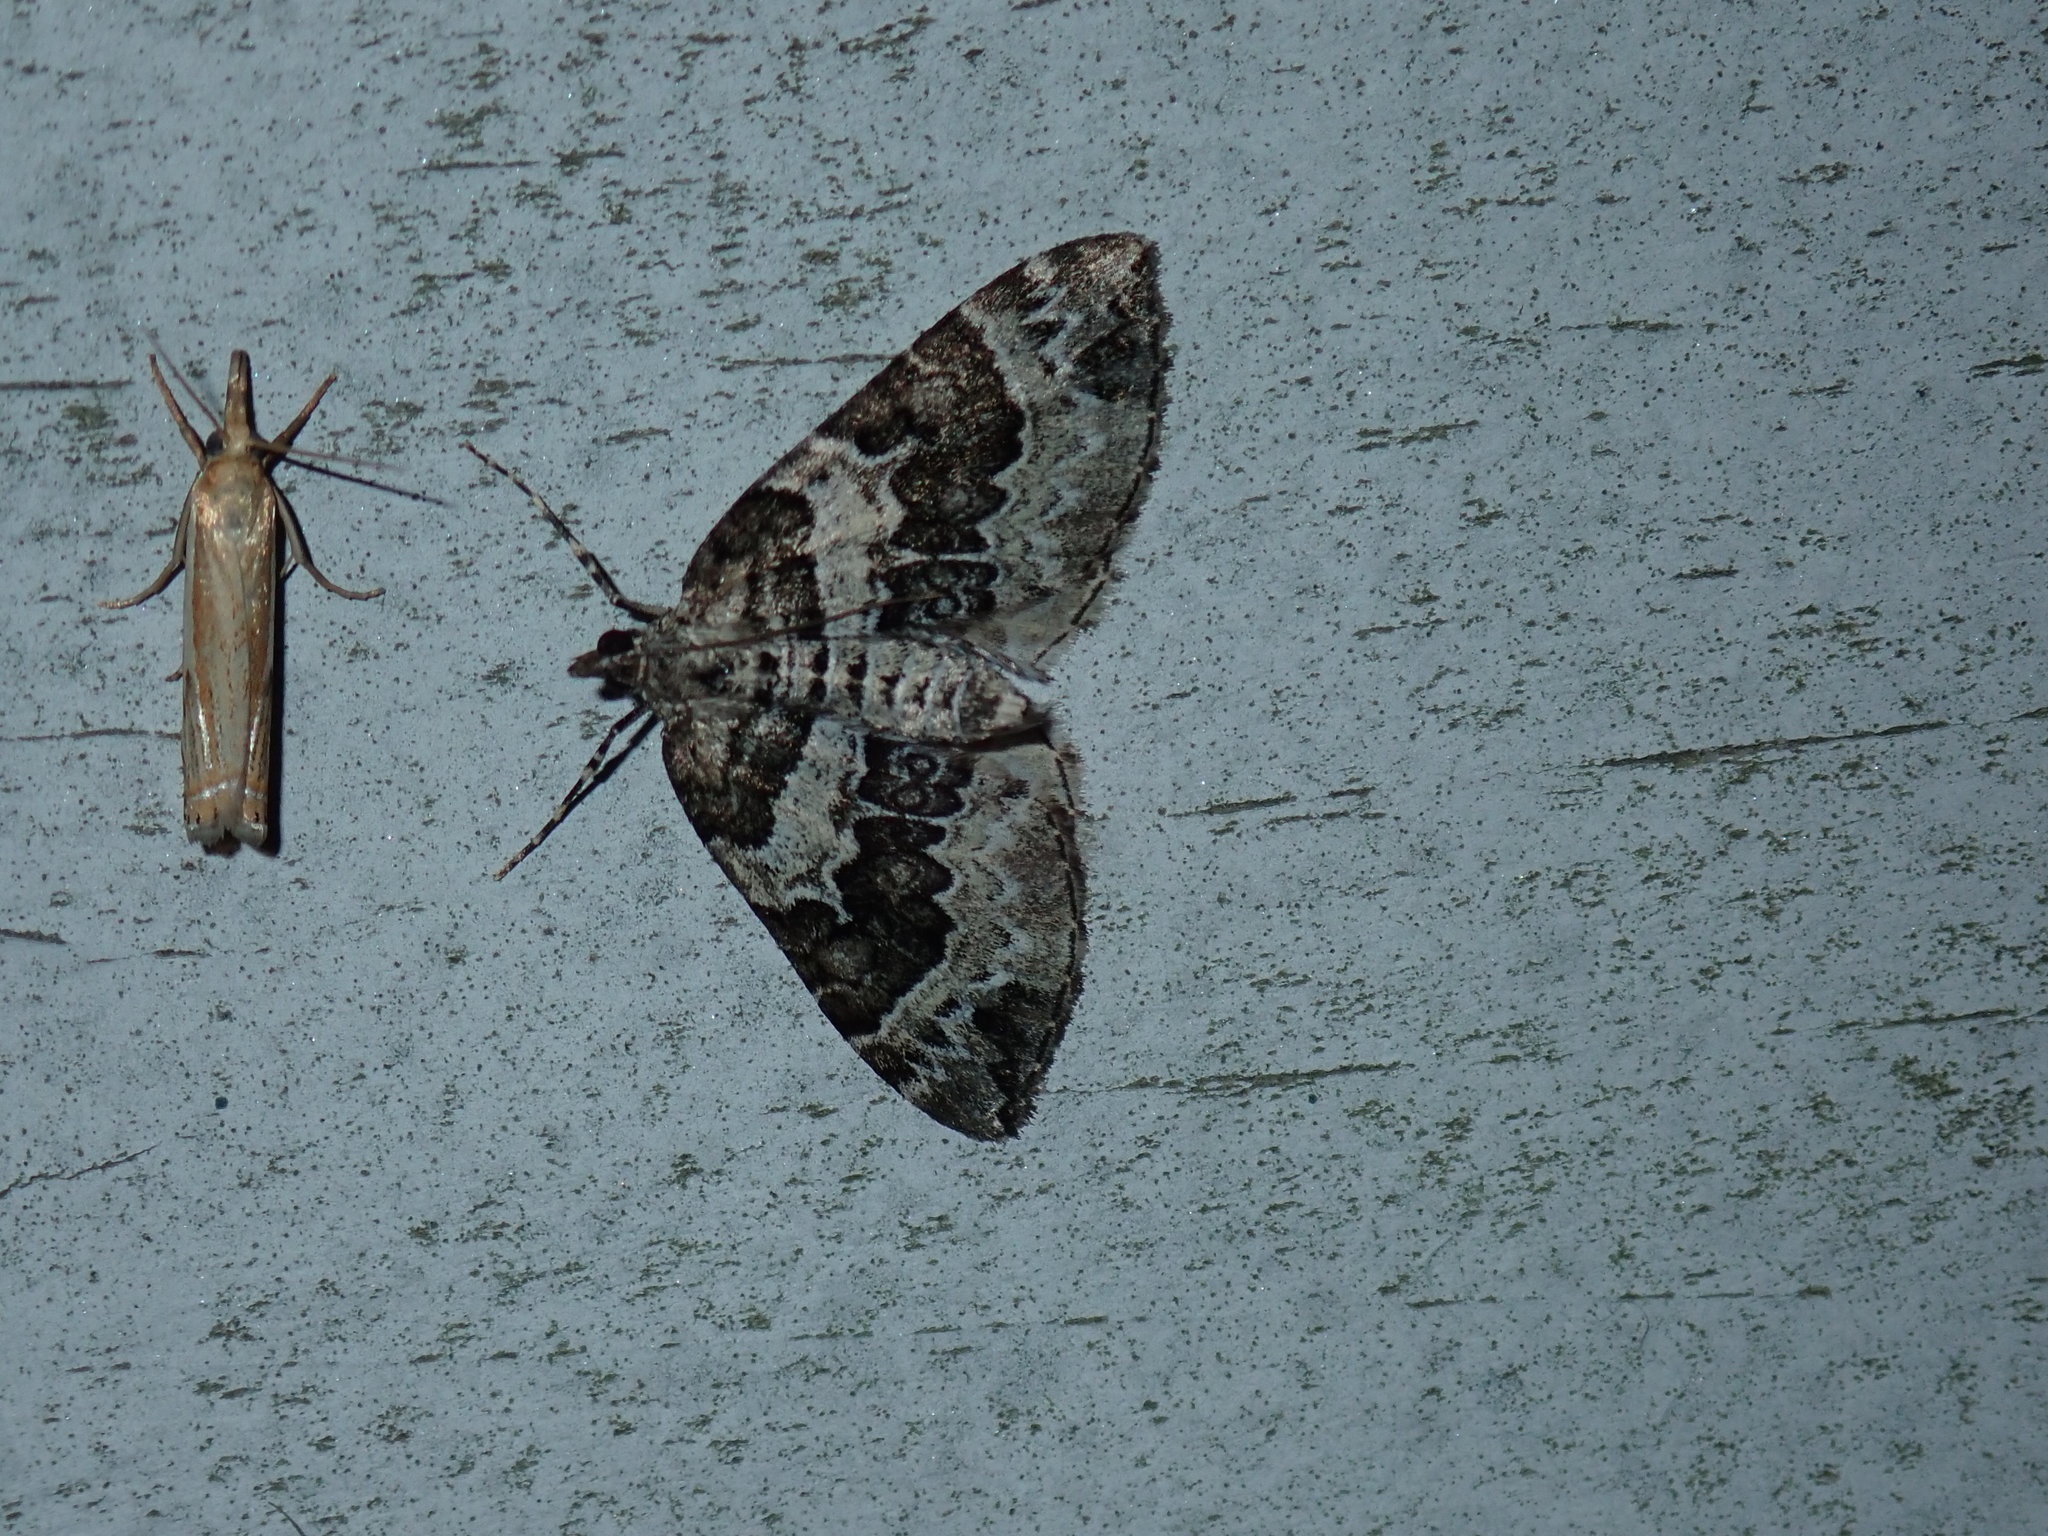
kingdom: Animalia
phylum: Arthropoda
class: Insecta
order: Lepidoptera
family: Geometridae
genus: Eulithis
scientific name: Eulithis explanata
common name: White eulithis
